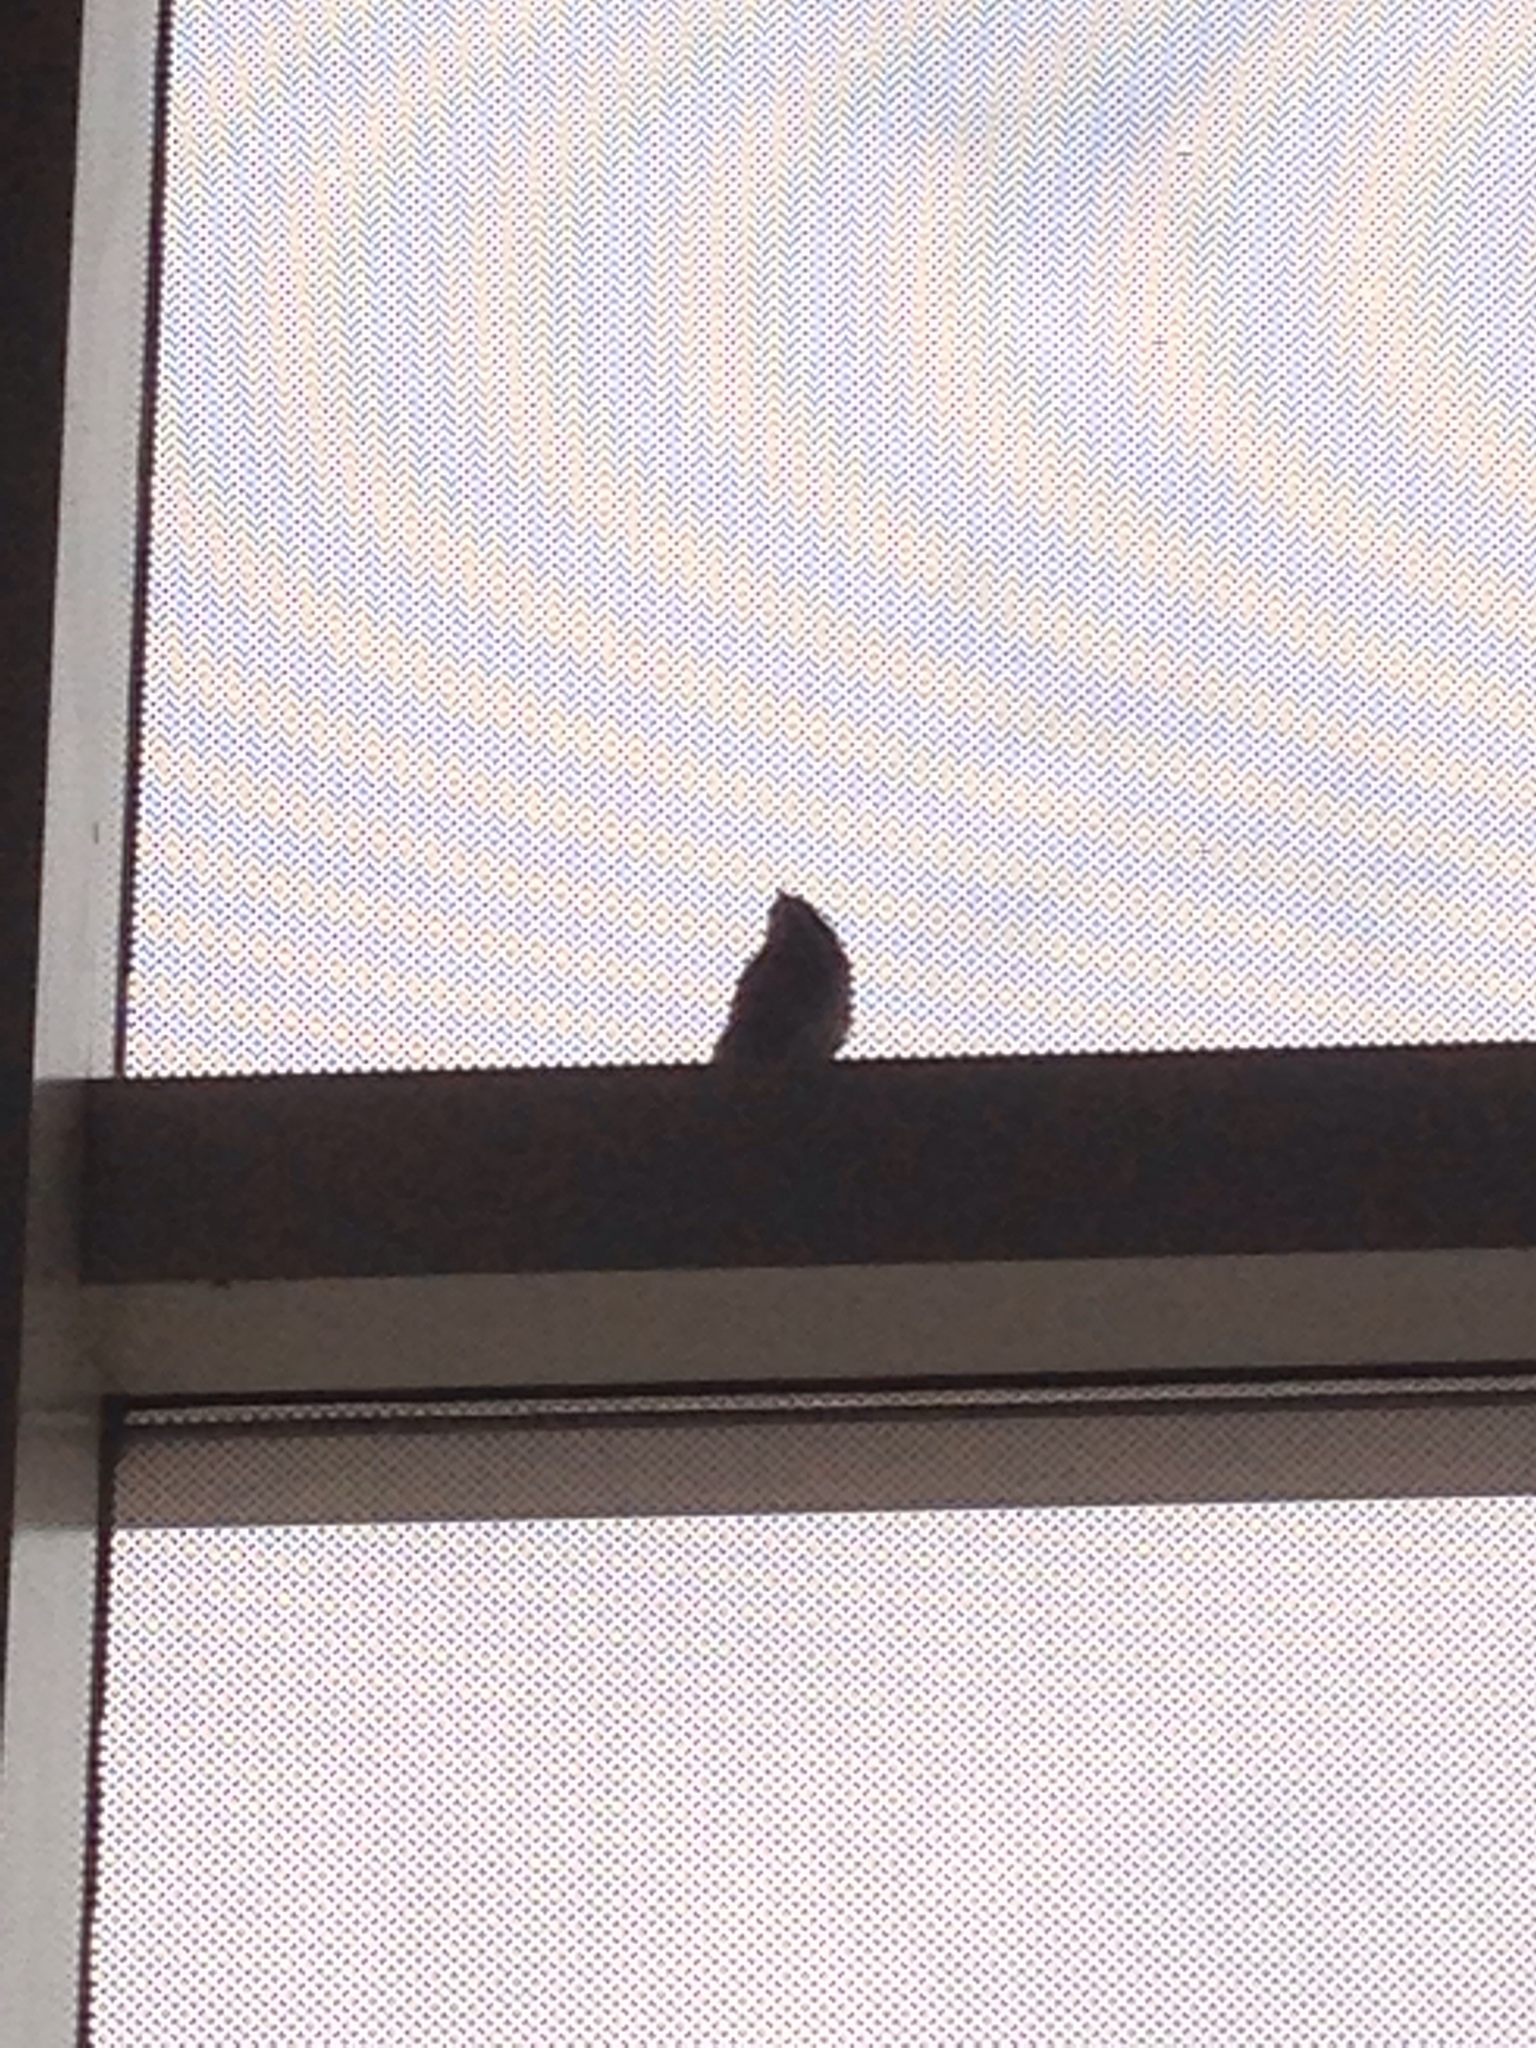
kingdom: Animalia
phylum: Chordata
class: Aves
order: Passeriformes
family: Passeridae
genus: Passer
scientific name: Passer domesticus
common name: House sparrow
